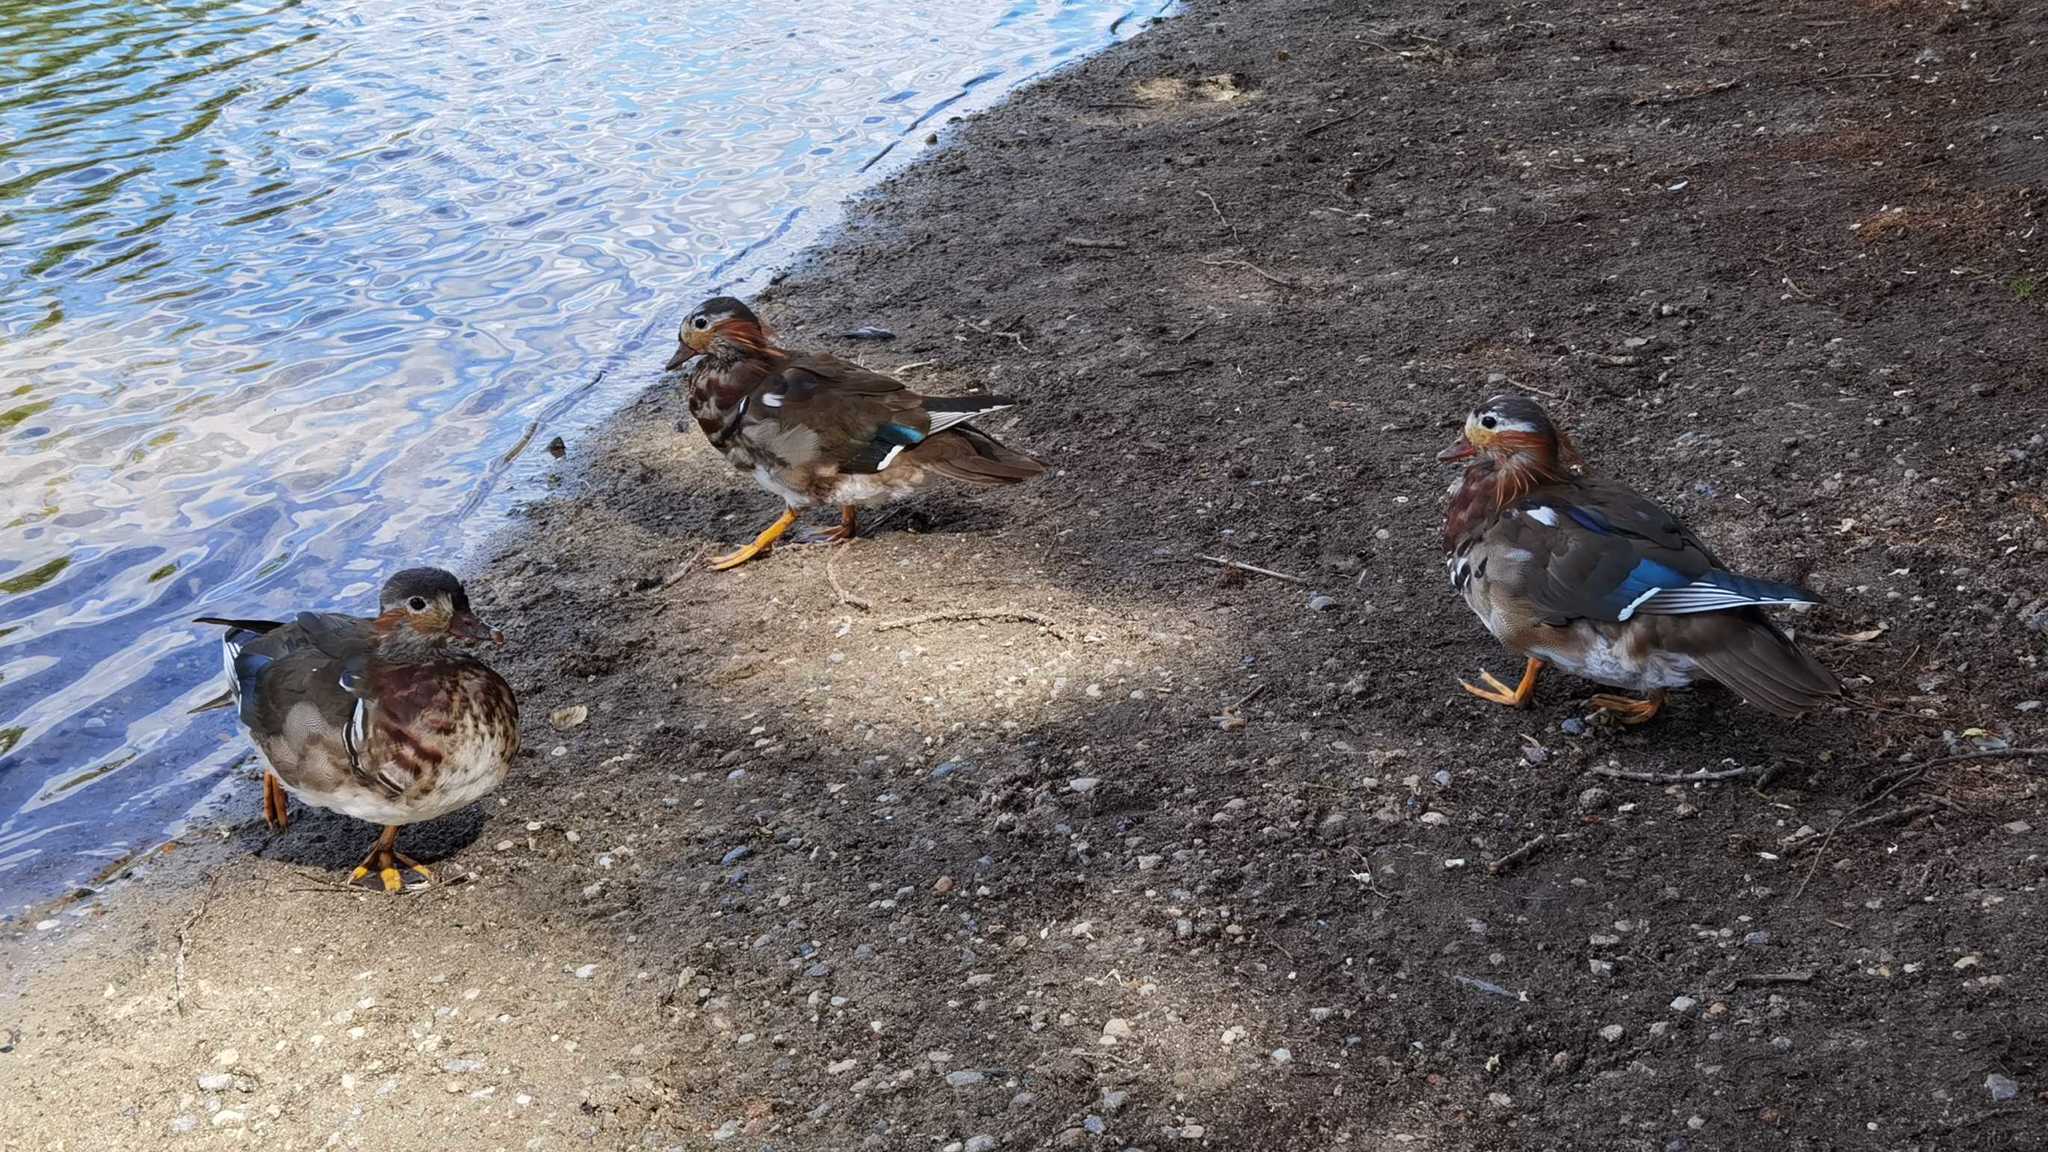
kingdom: Animalia
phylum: Chordata
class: Aves
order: Anseriformes
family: Anatidae
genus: Aix
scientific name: Aix galericulata
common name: Mandarin duck
